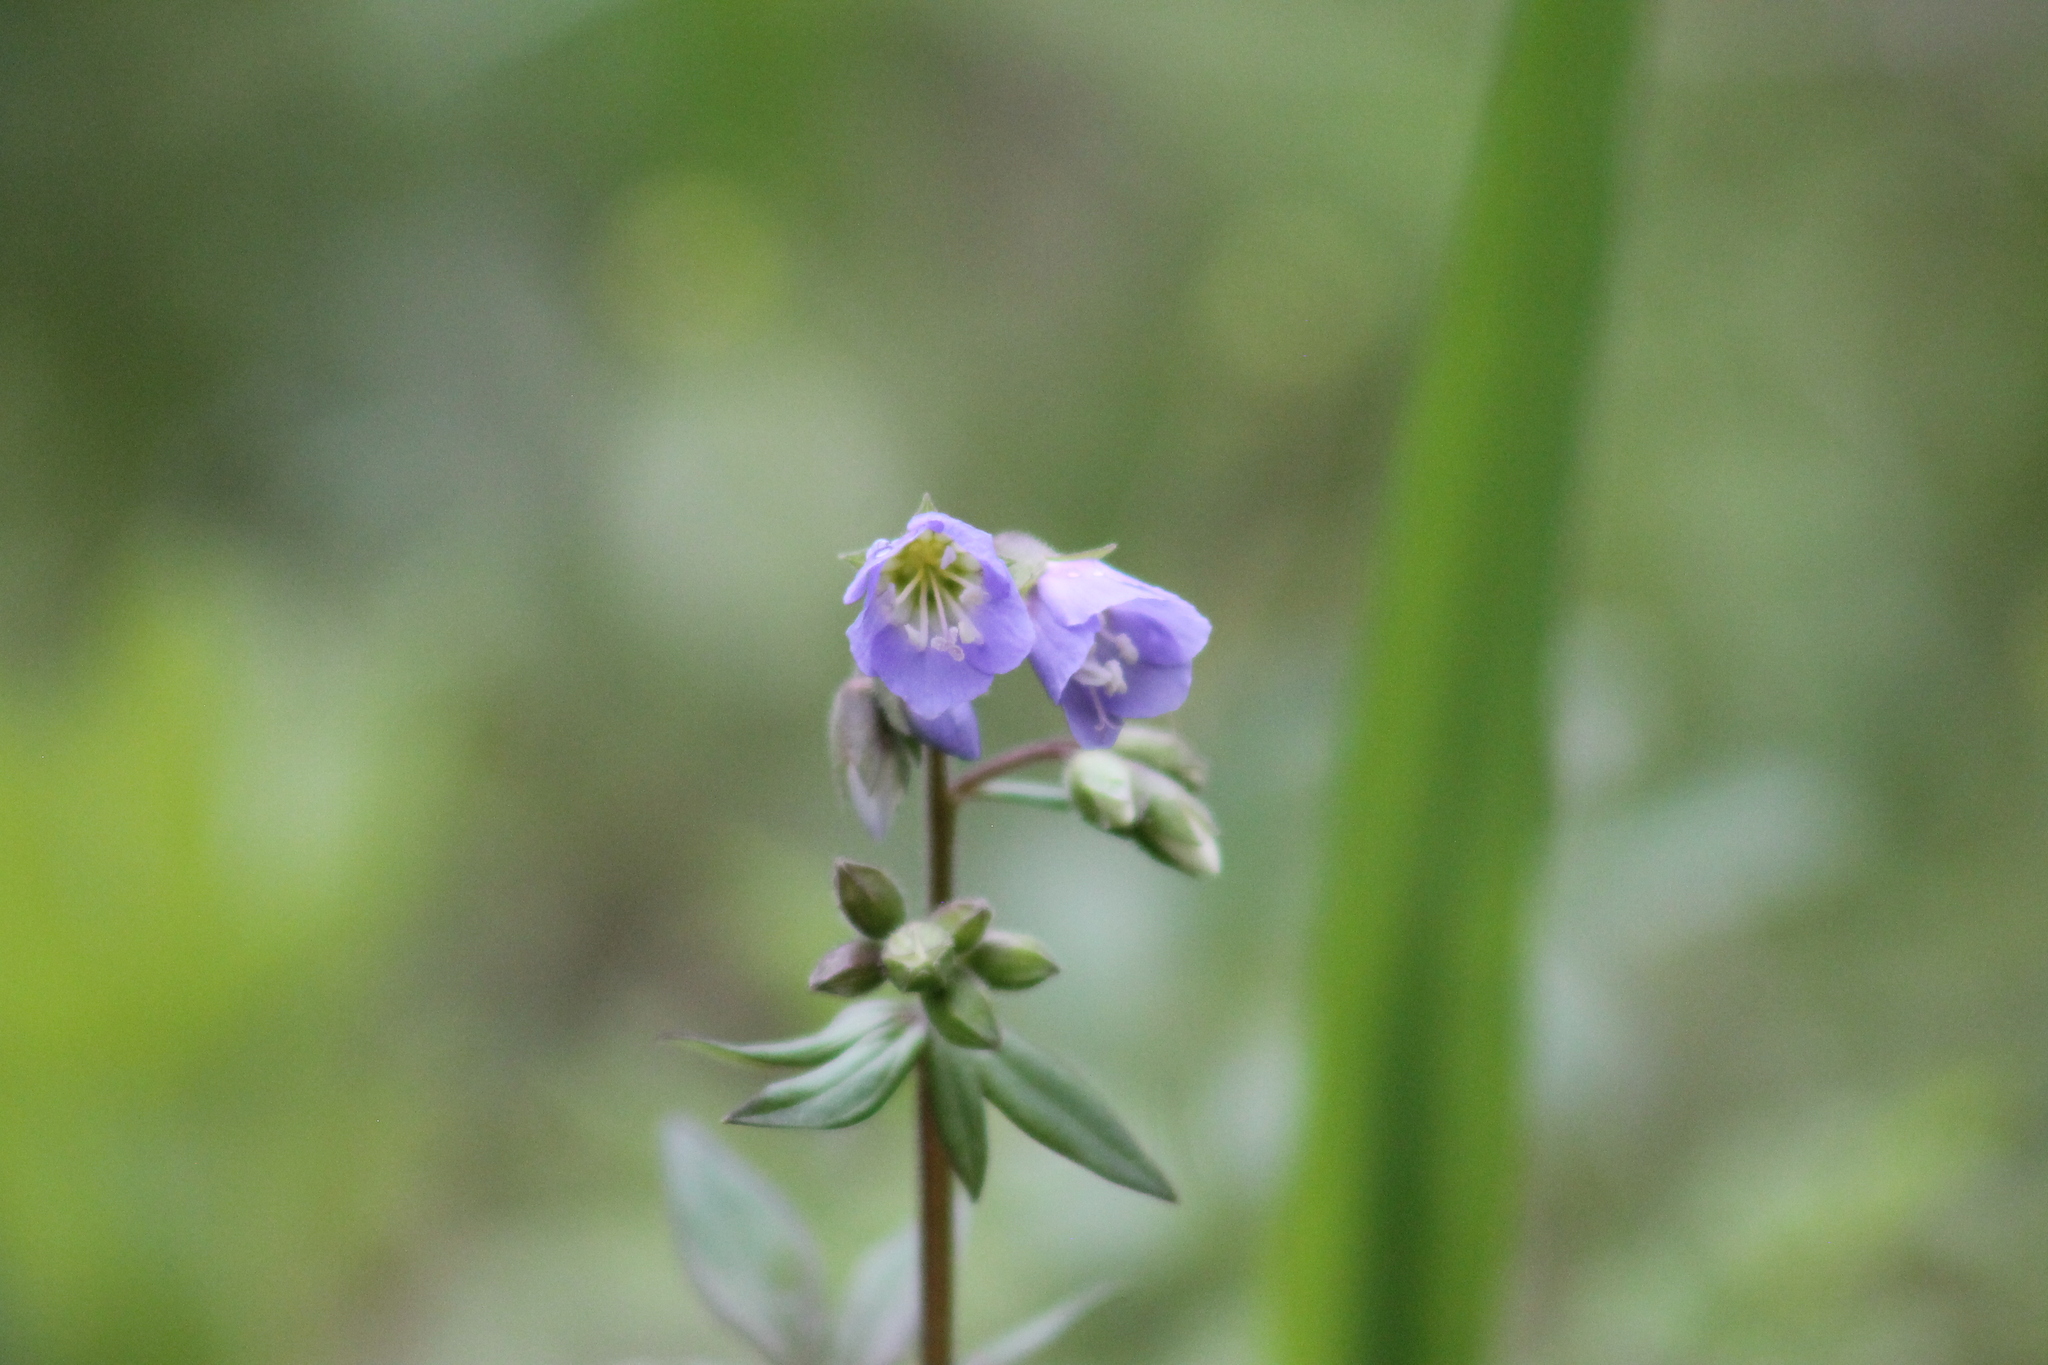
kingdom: Plantae
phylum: Tracheophyta
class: Magnoliopsida
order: Ericales
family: Polemoniaceae
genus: Polemonium
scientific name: Polemonium reptans
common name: Creeping jacob's-ladder
